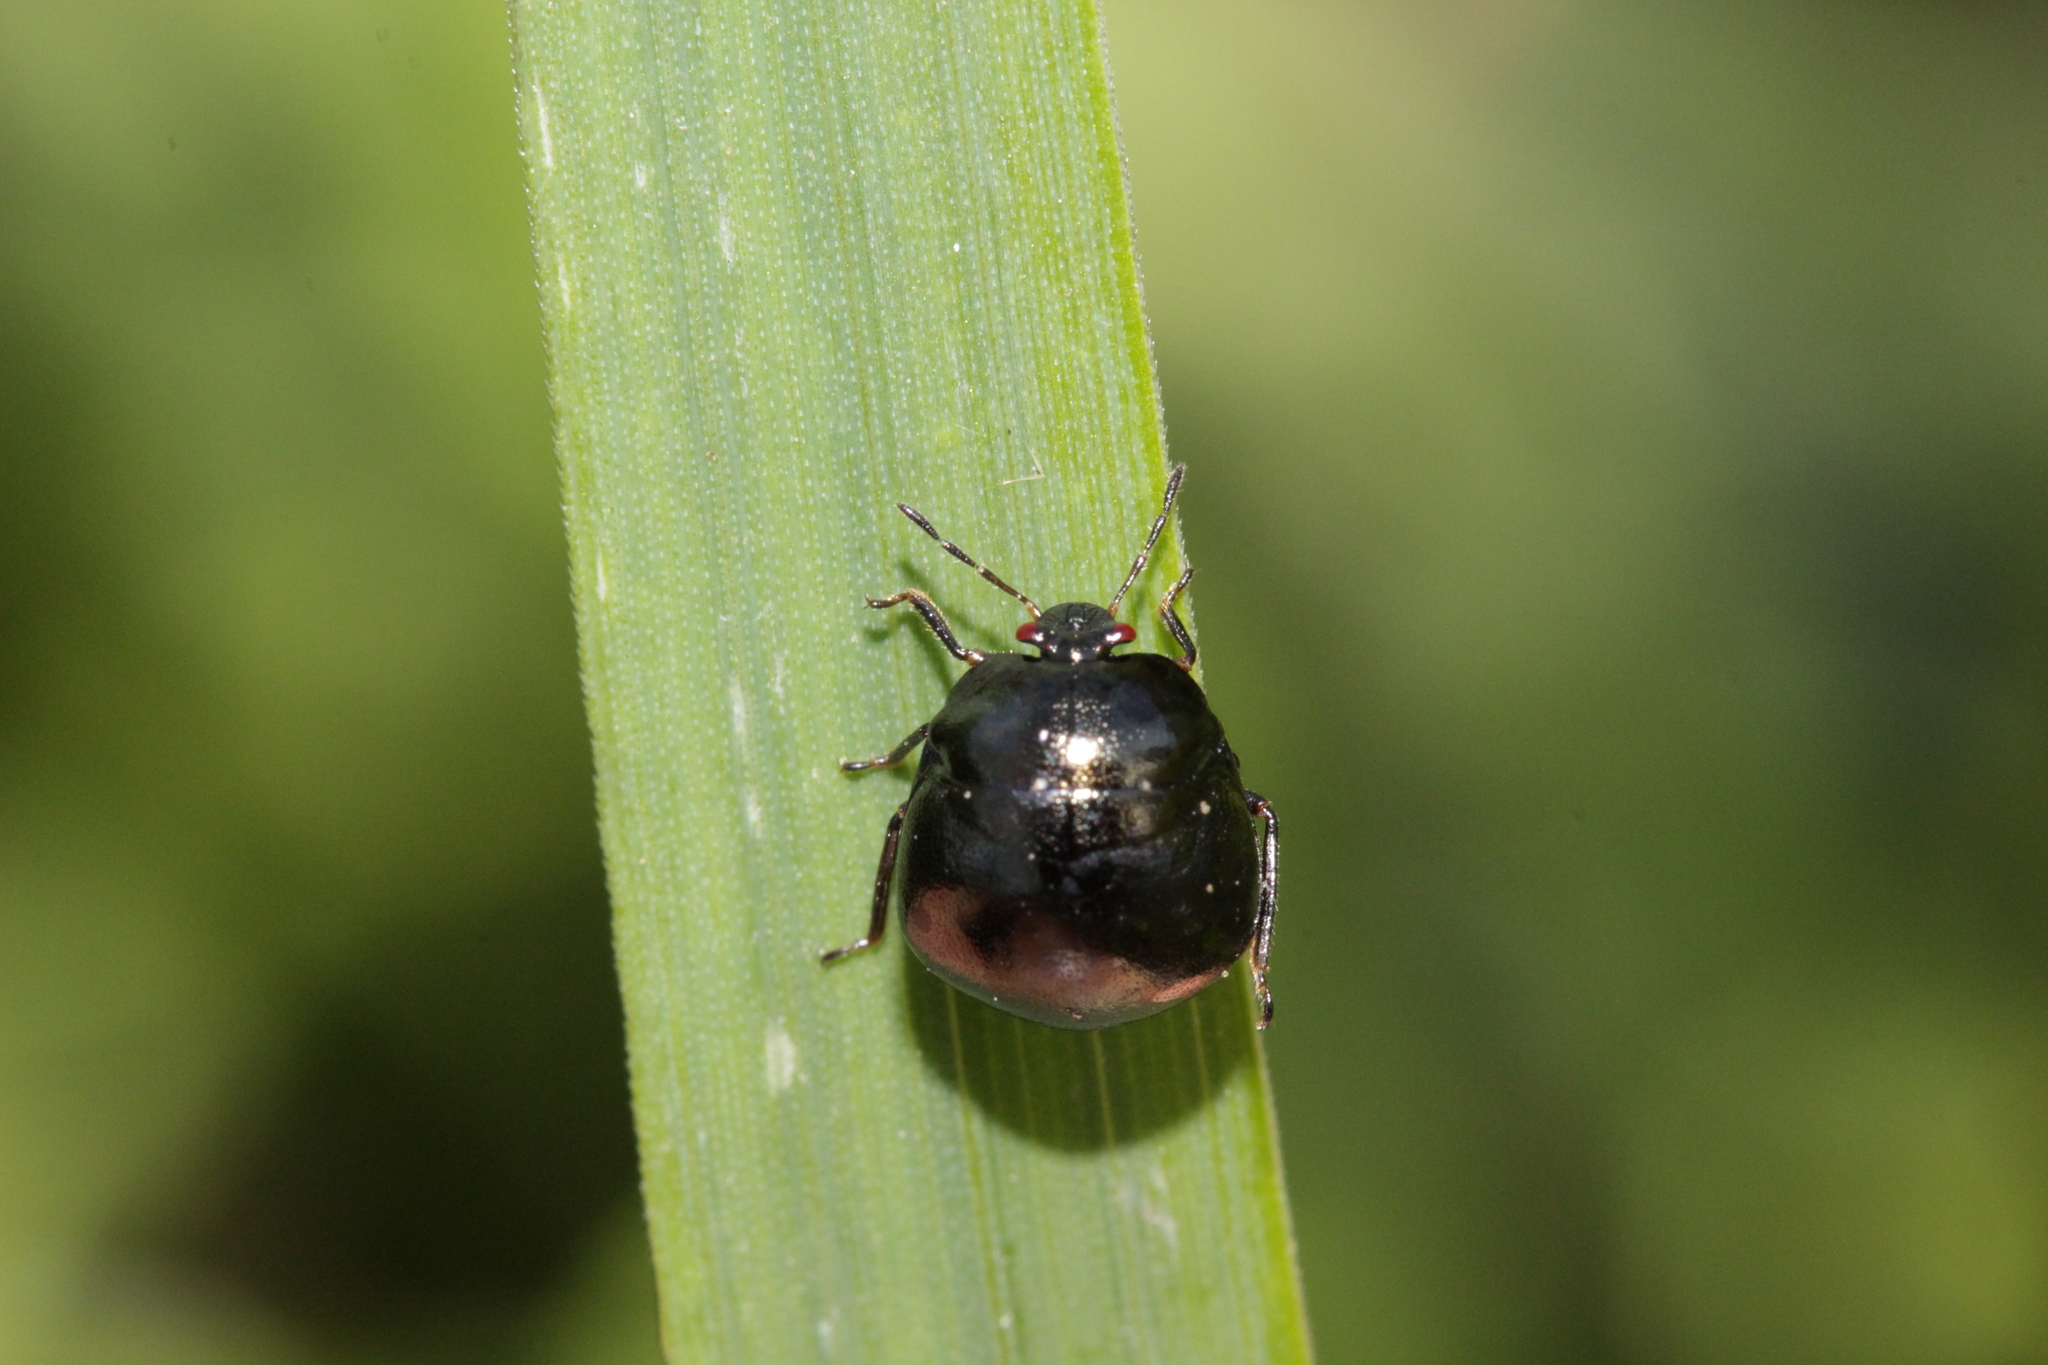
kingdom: Animalia
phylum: Arthropoda
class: Insecta
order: Hemiptera
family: Plataspidae
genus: Coptosoma
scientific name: Coptosoma scutellatum
